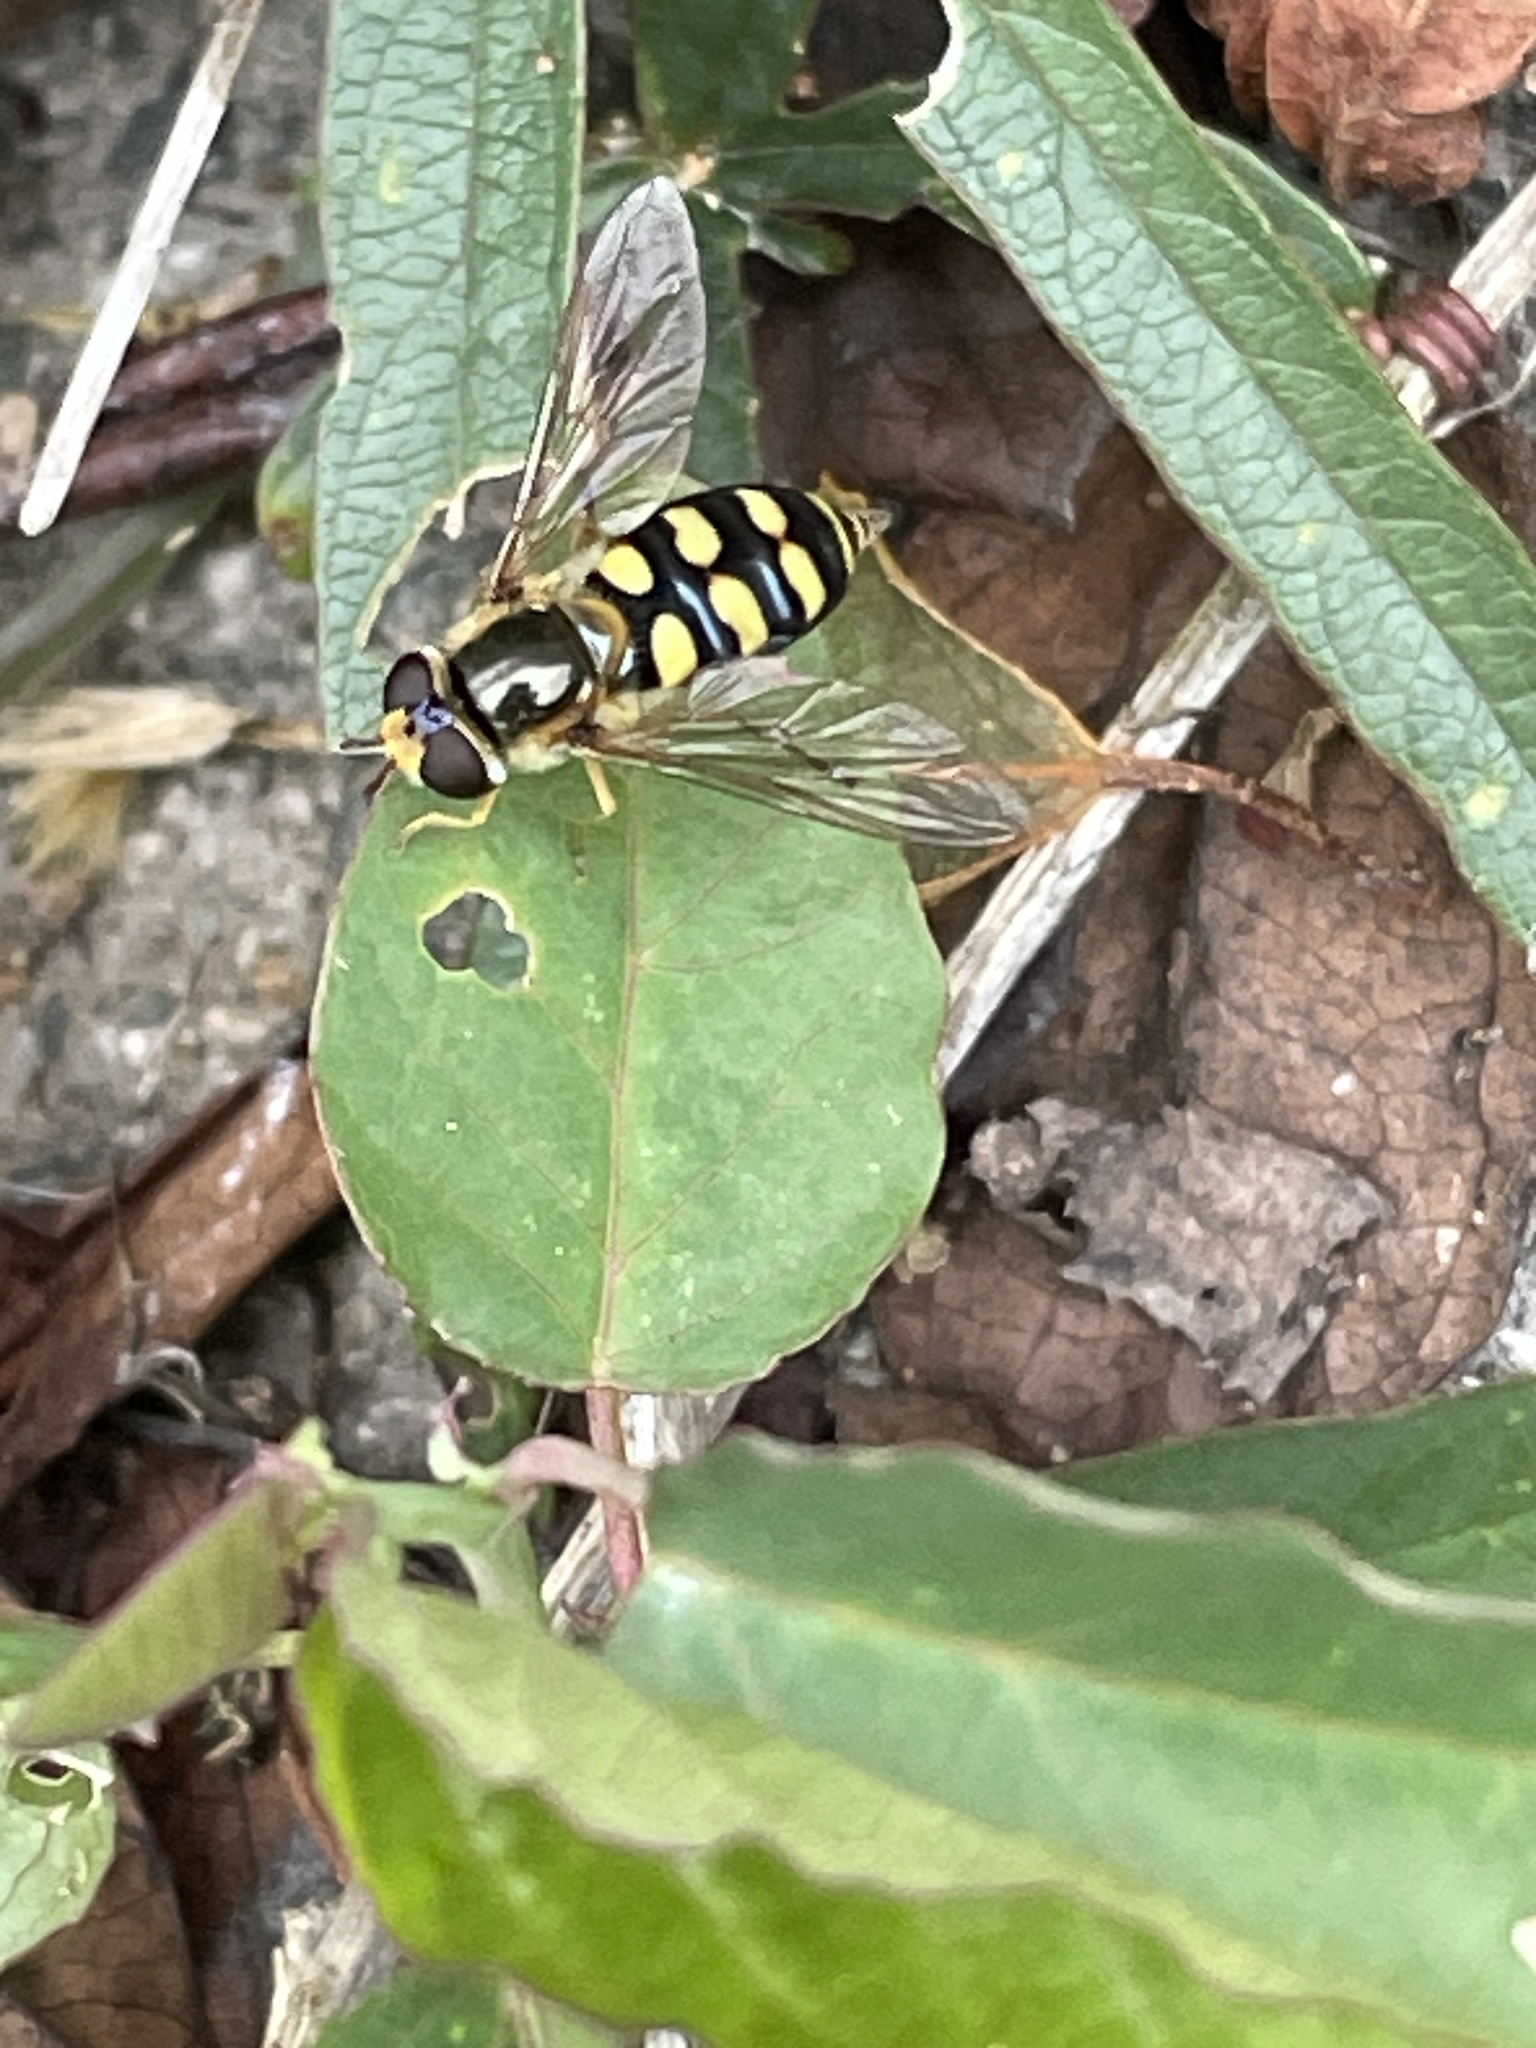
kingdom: Animalia
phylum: Arthropoda
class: Insecta
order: Diptera
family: Syrphidae
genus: Eupeodes
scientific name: Eupeodes
